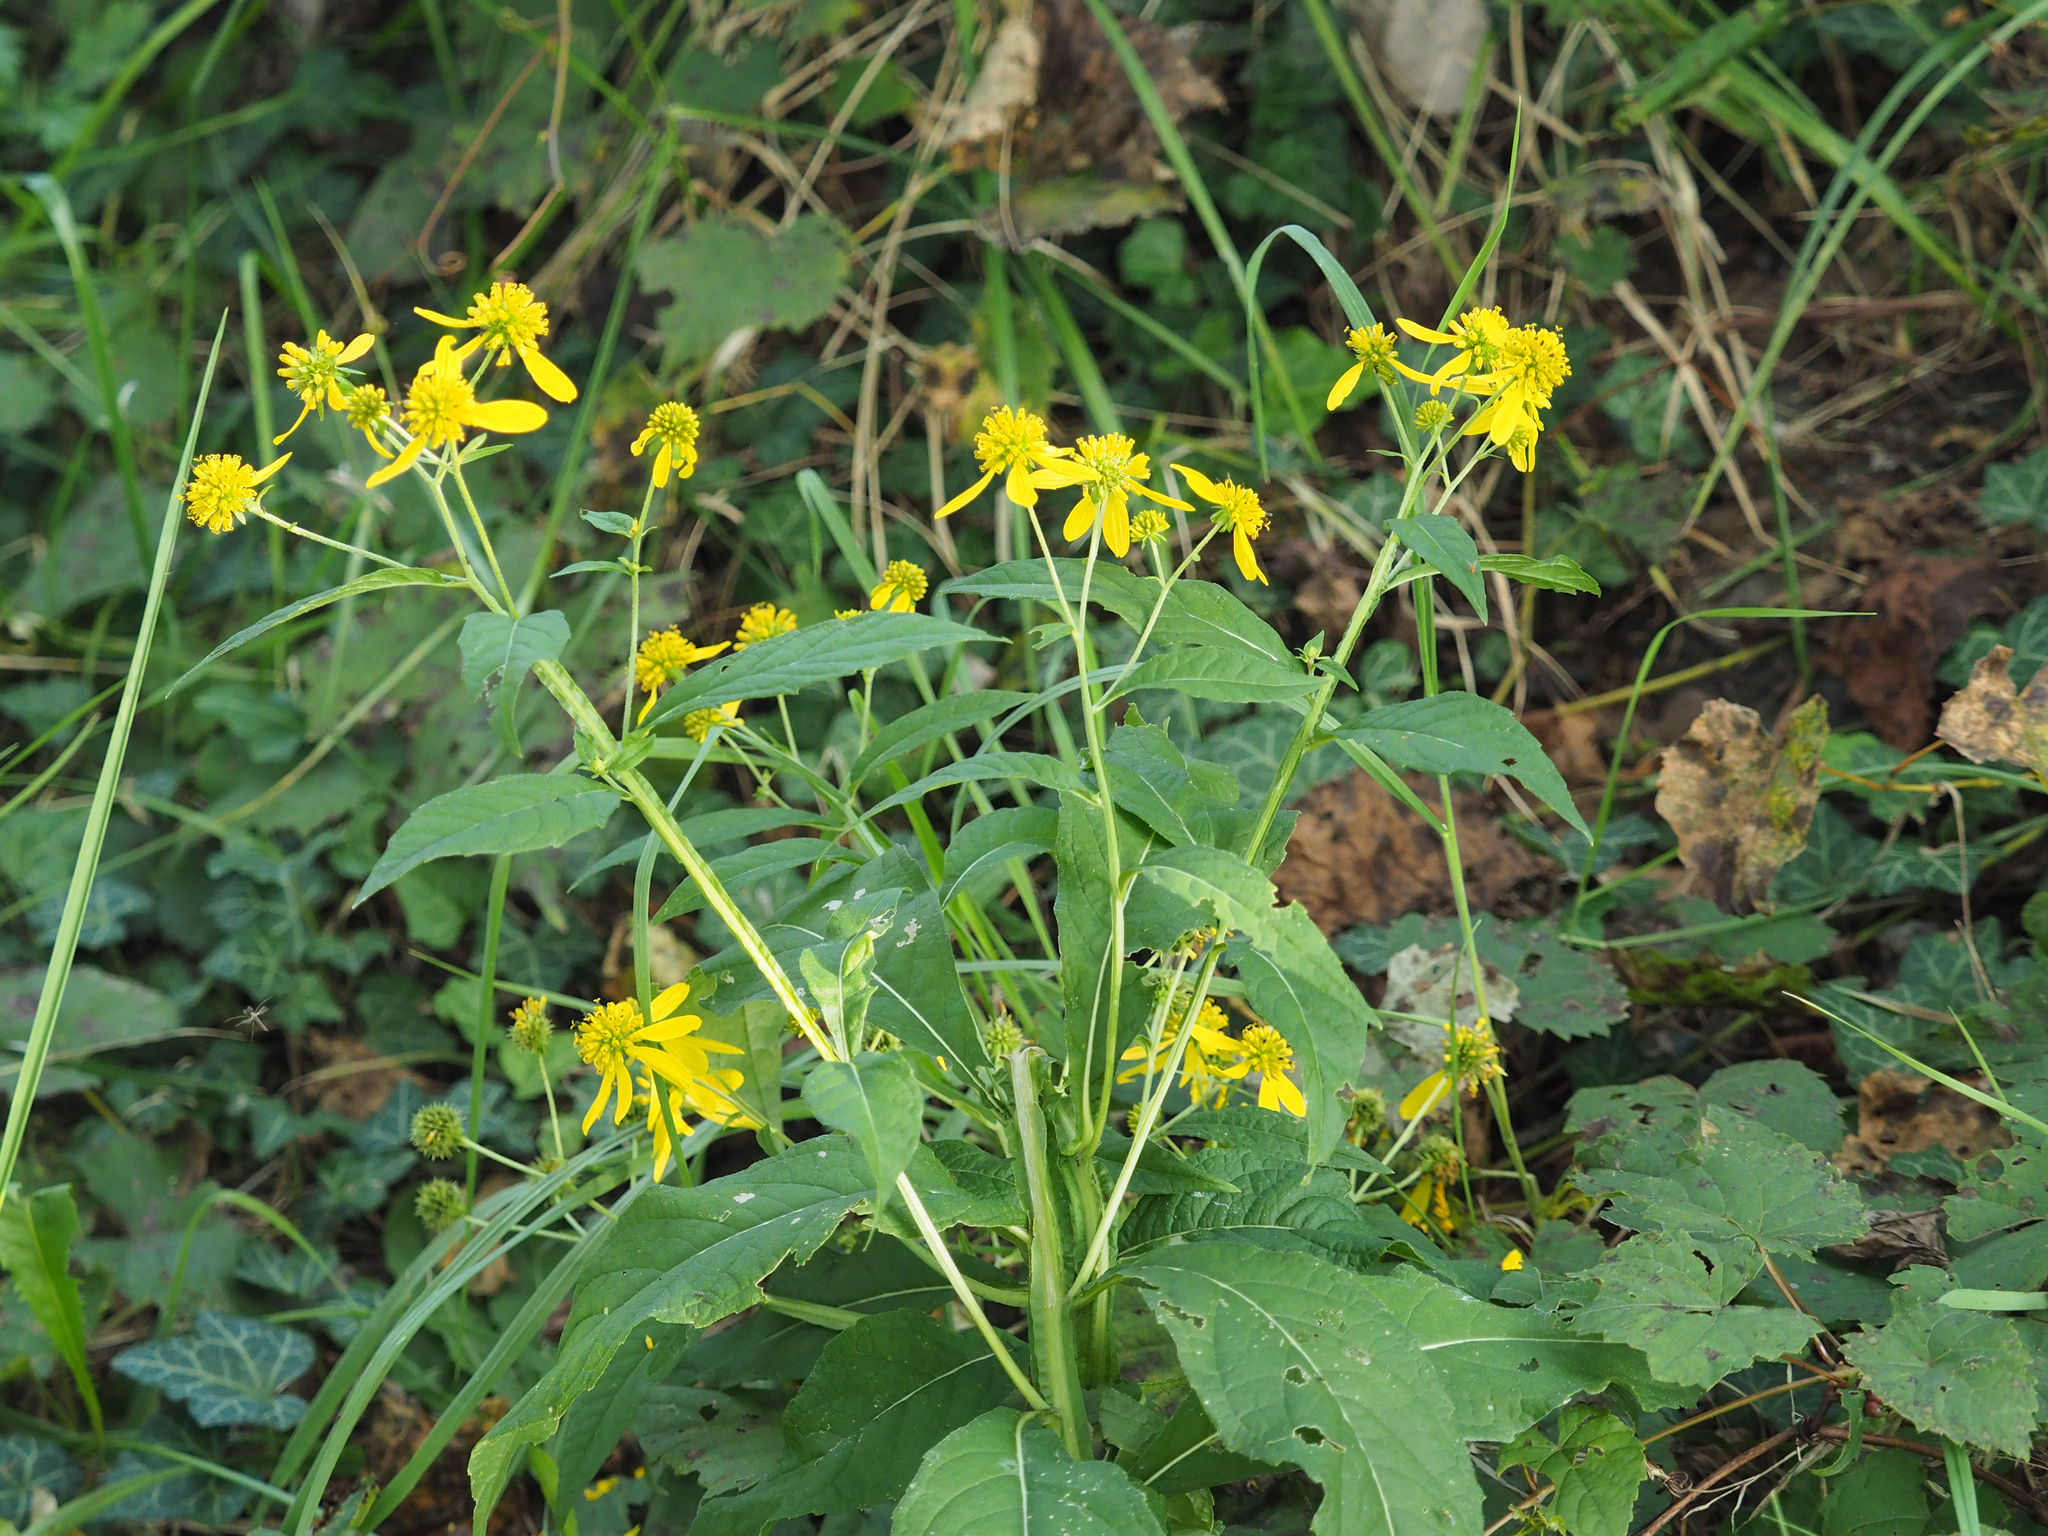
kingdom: Plantae
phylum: Tracheophyta
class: Magnoliopsida
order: Asterales
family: Asteraceae
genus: Verbesina
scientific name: Verbesina alternifolia
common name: Wingstem
